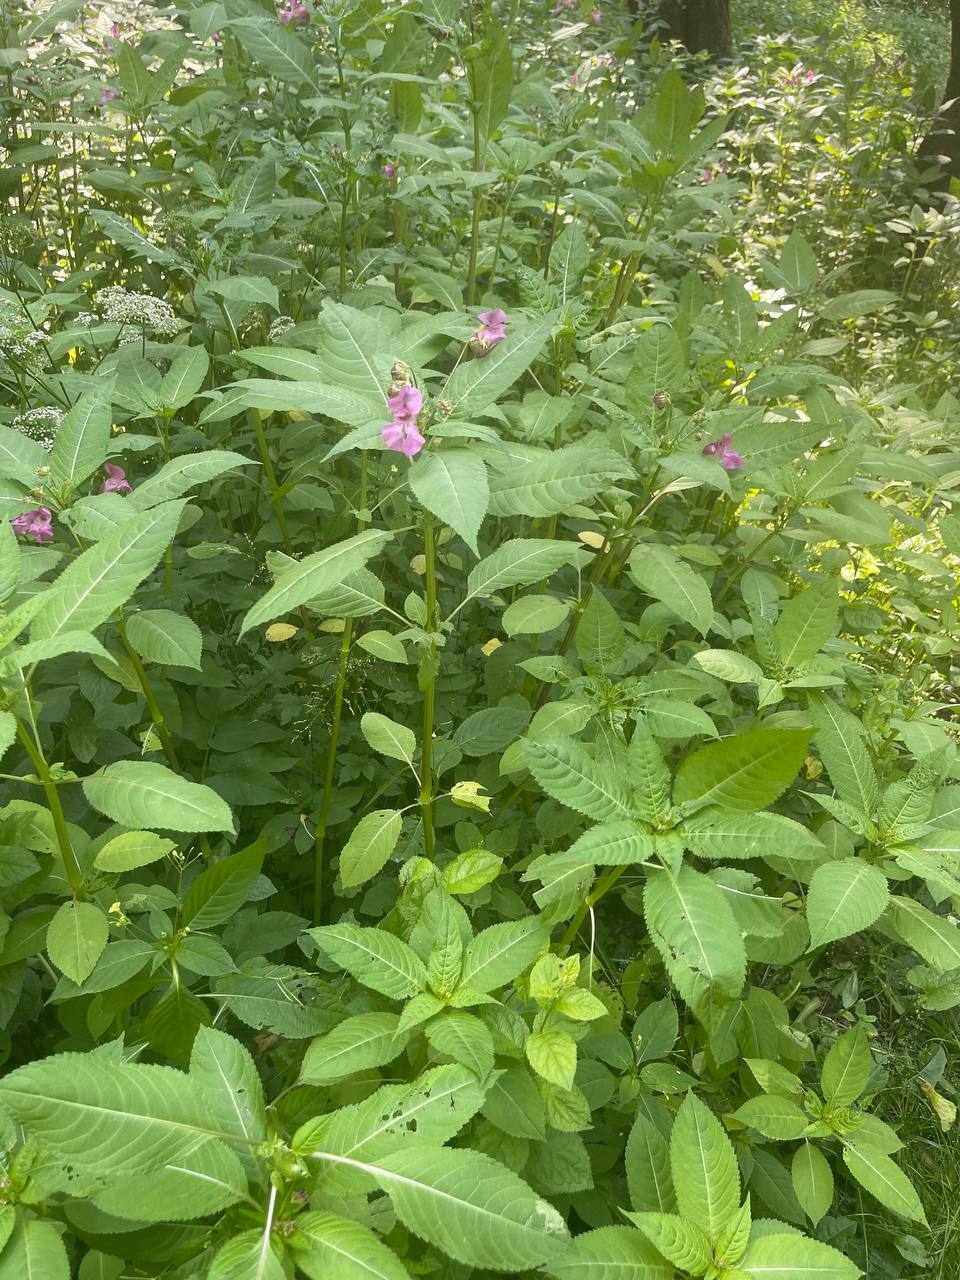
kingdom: Plantae
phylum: Tracheophyta
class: Magnoliopsida
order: Ericales
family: Balsaminaceae
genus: Impatiens
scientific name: Impatiens glandulifera
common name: Himalayan balsam
